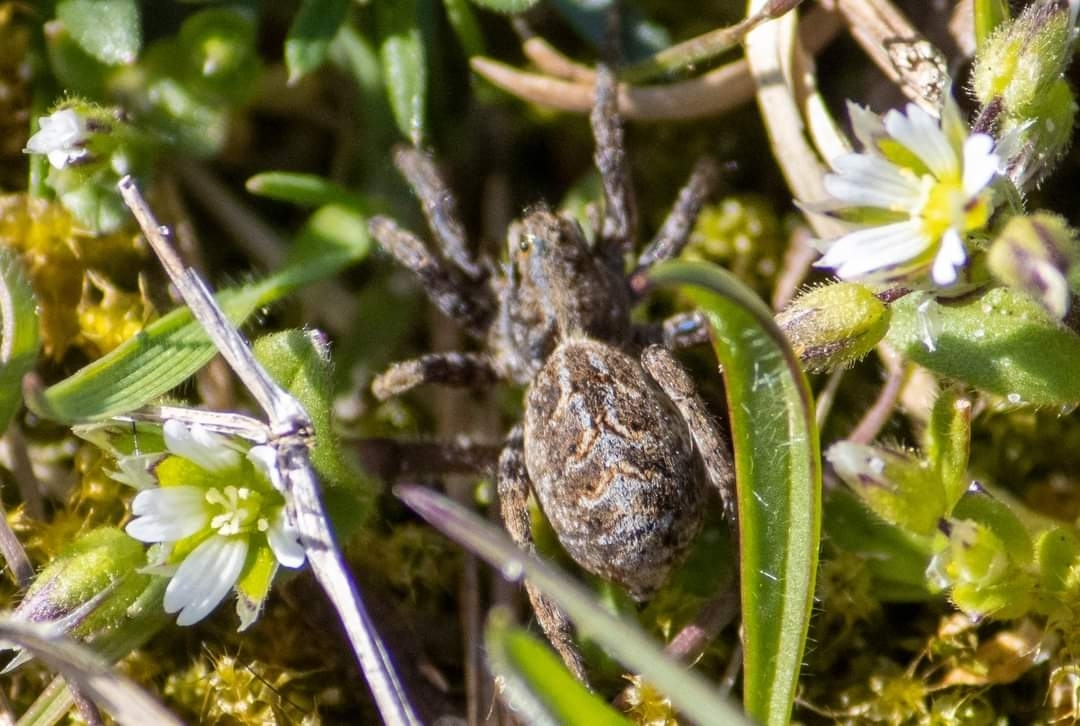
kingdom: Animalia
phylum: Arthropoda
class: Arachnida
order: Araneae
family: Lycosidae
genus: Alopecosa
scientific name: Alopecosa barbipes
